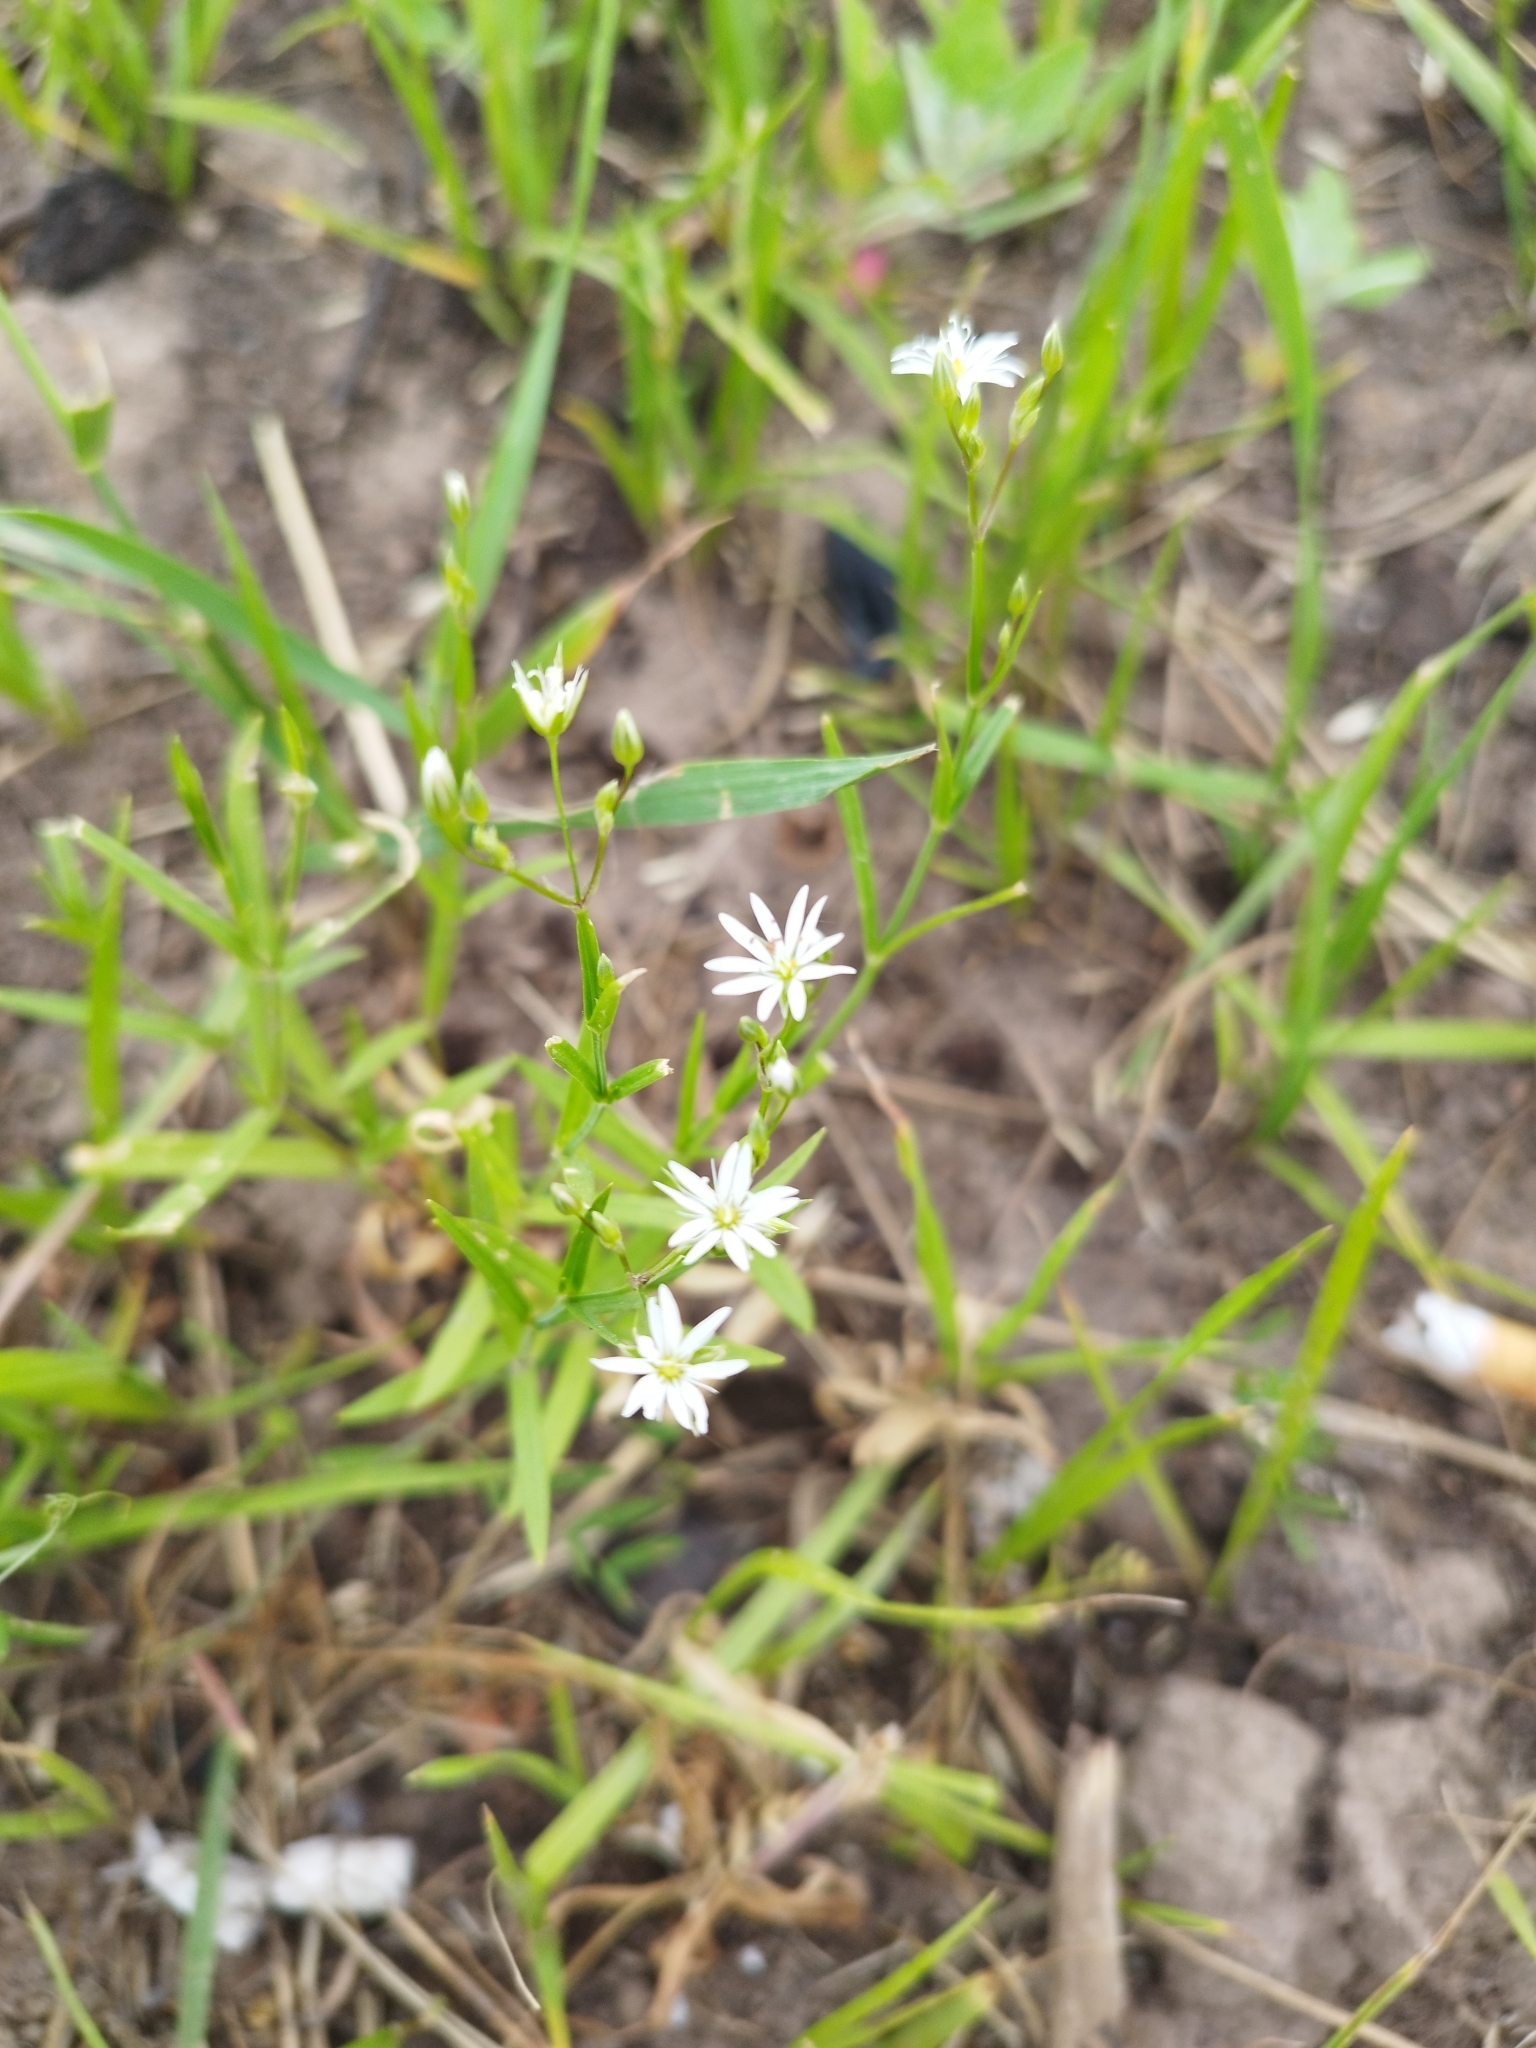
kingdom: Plantae
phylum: Tracheophyta
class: Magnoliopsida
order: Caryophyllales
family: Caryophyllaceae
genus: Stellaria
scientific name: Stellaria graminea
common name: Grass-like starwort
